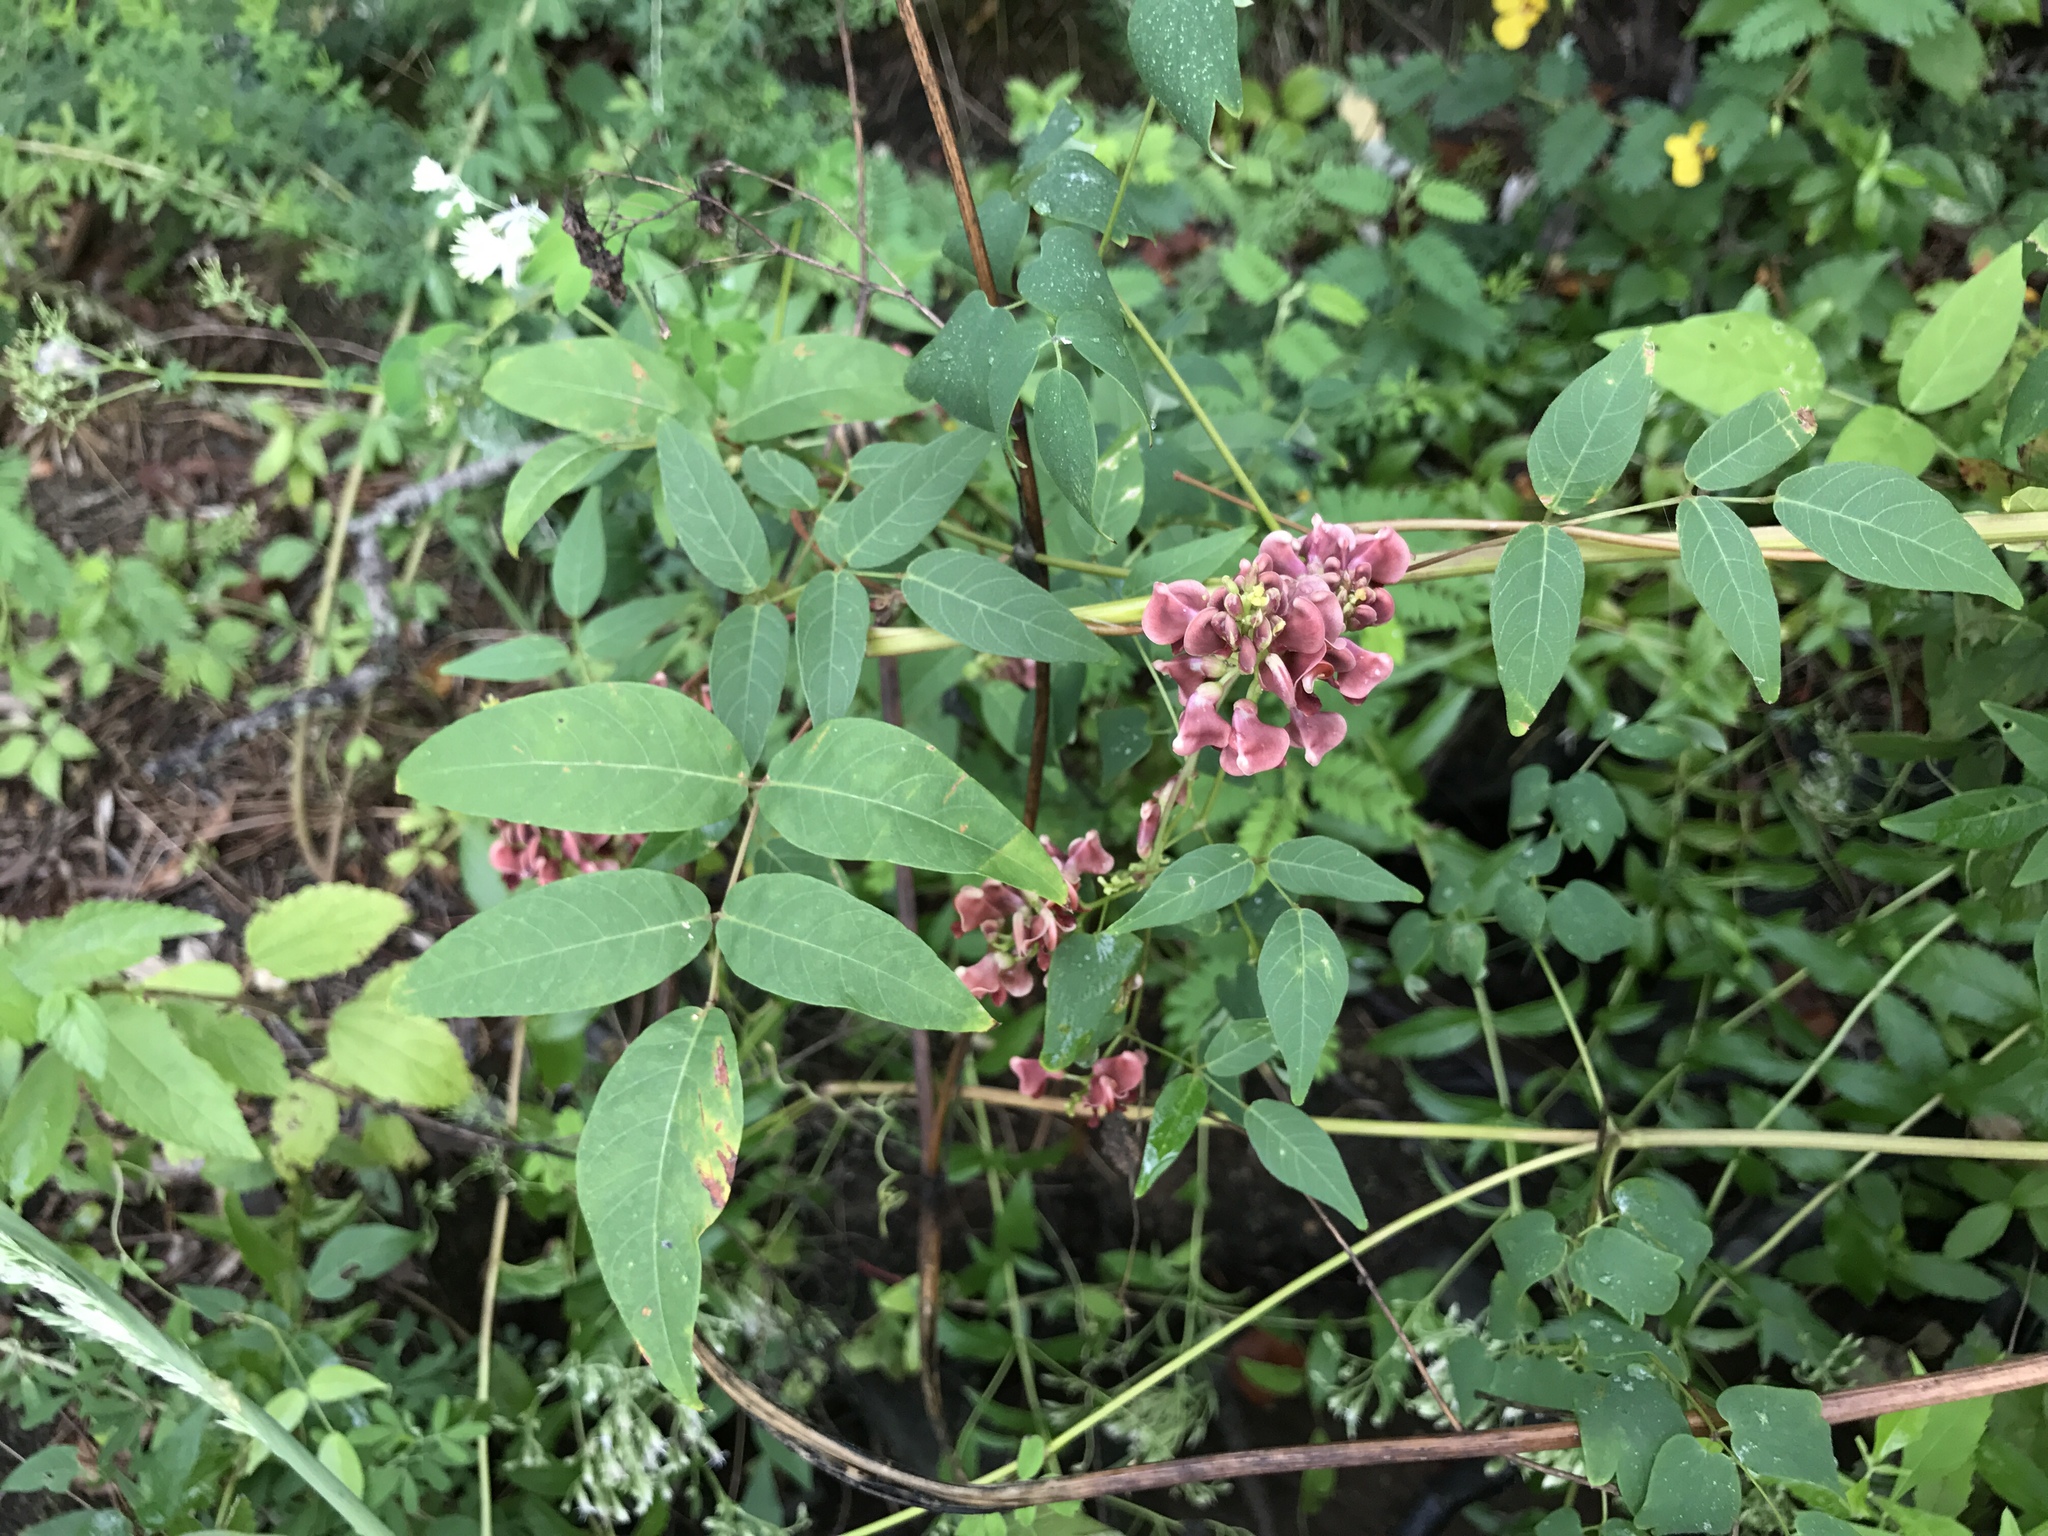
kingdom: Plantae
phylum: Tracheophyta
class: Magnoliopsida
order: Fabales
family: Fabaceae
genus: Apios
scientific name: Apios americana
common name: American potato-bean
